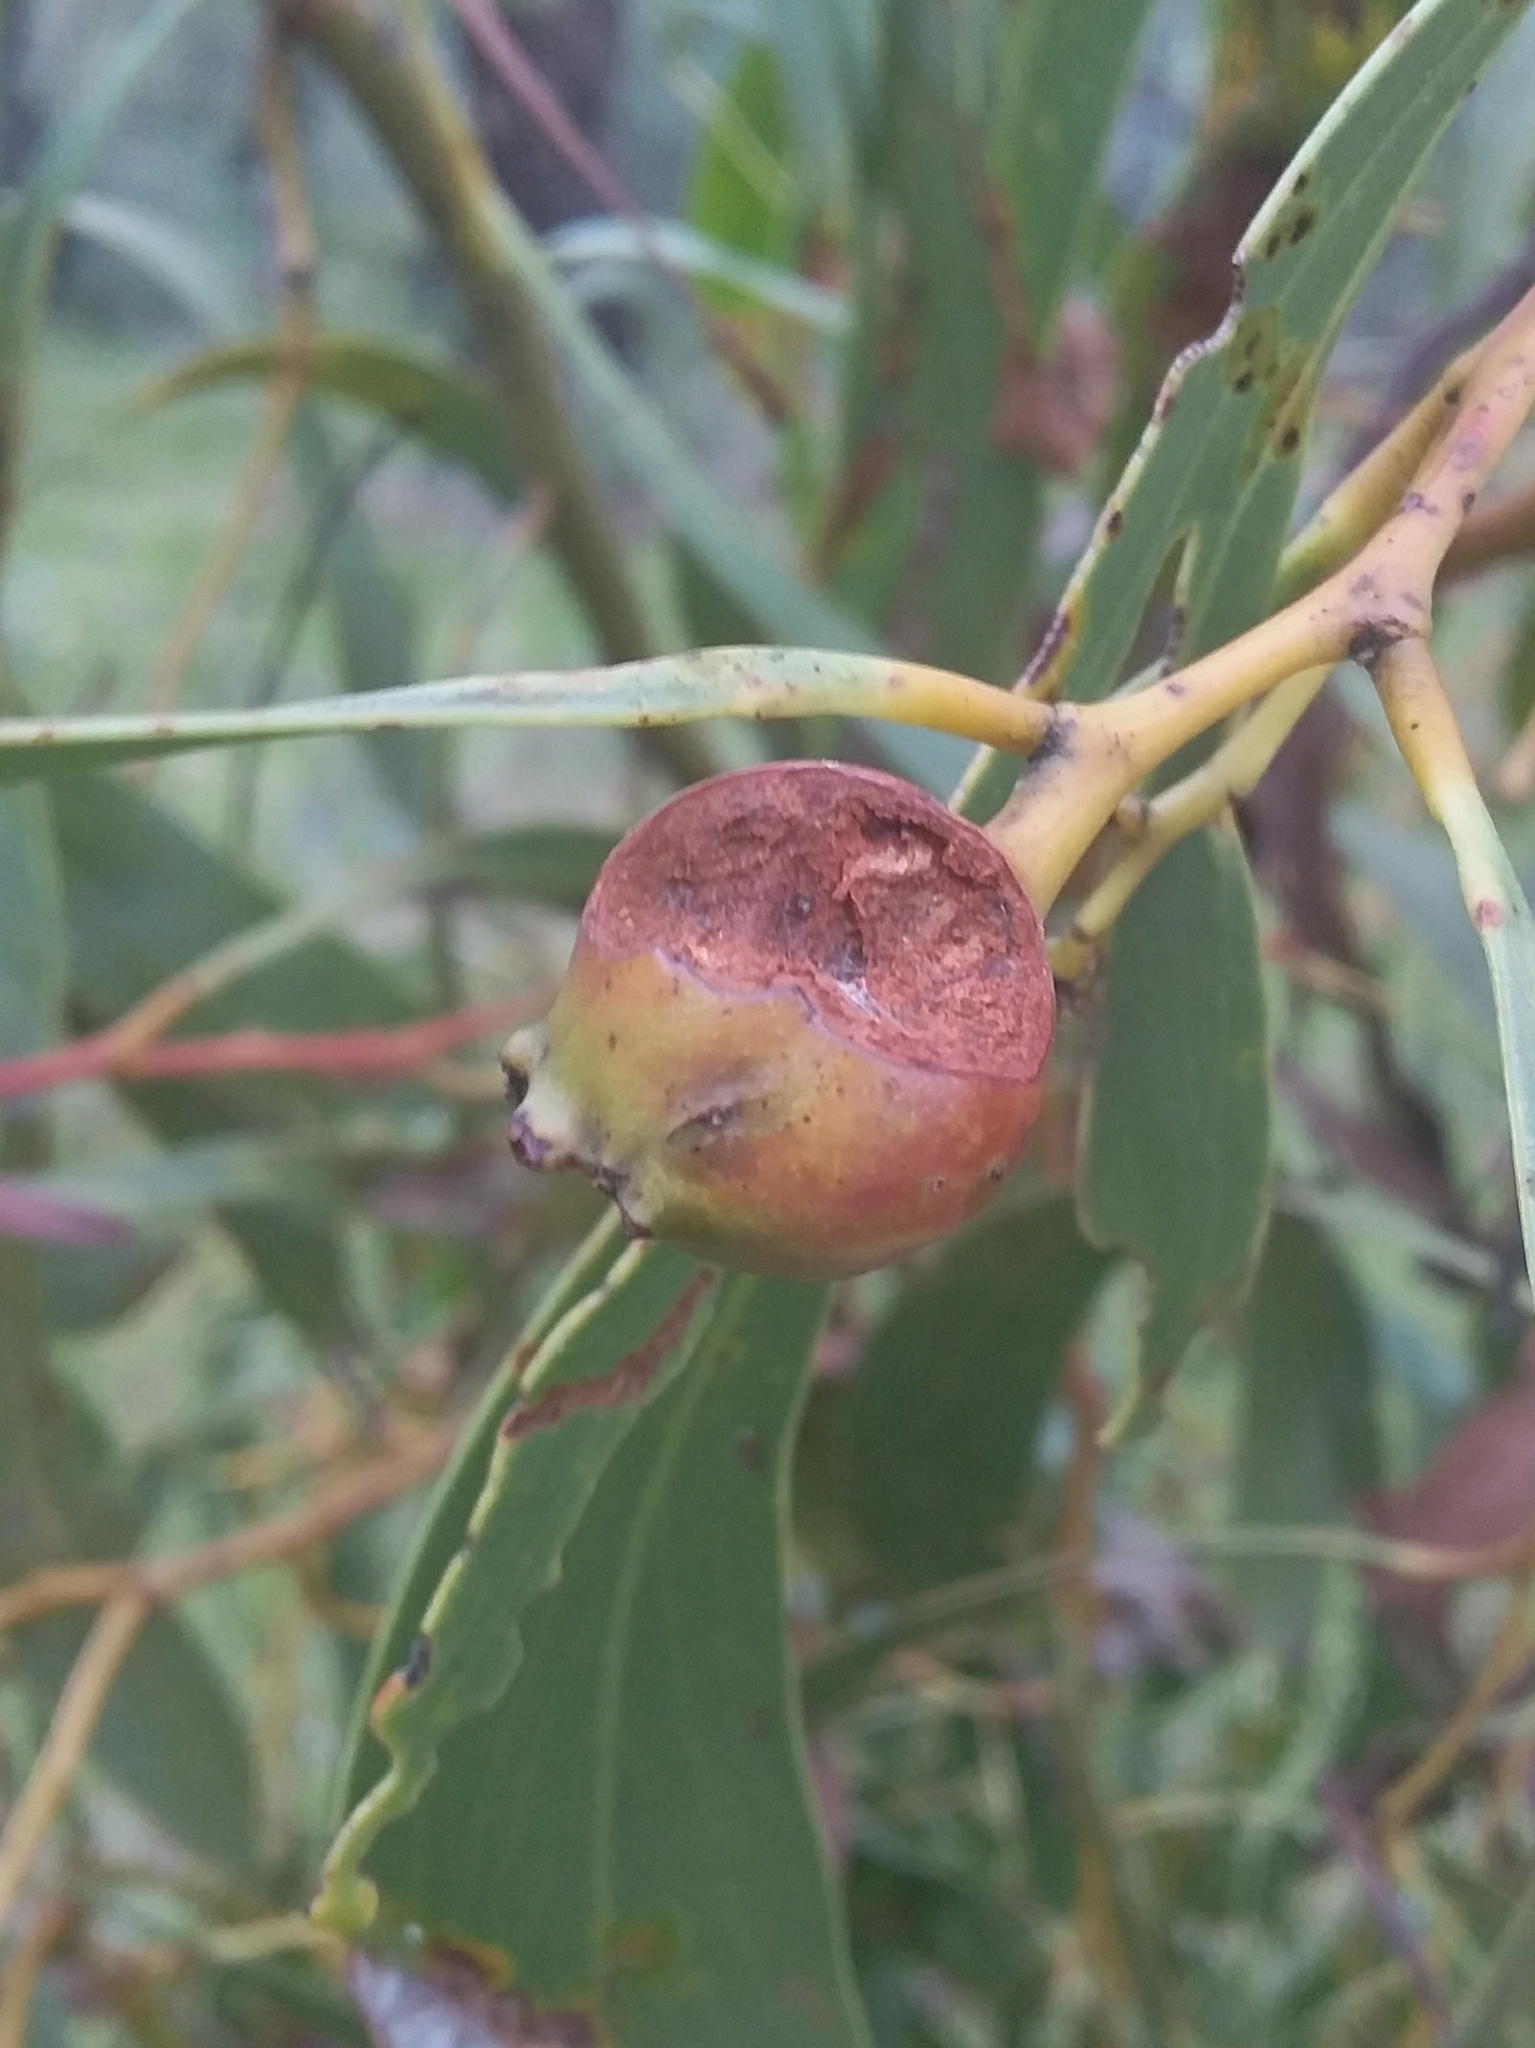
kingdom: Animalia
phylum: Arthropoda
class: Insecta
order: Hymenoptera
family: Pteromalidae
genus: Trichilogaster
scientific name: Trichilogaster signiventris
